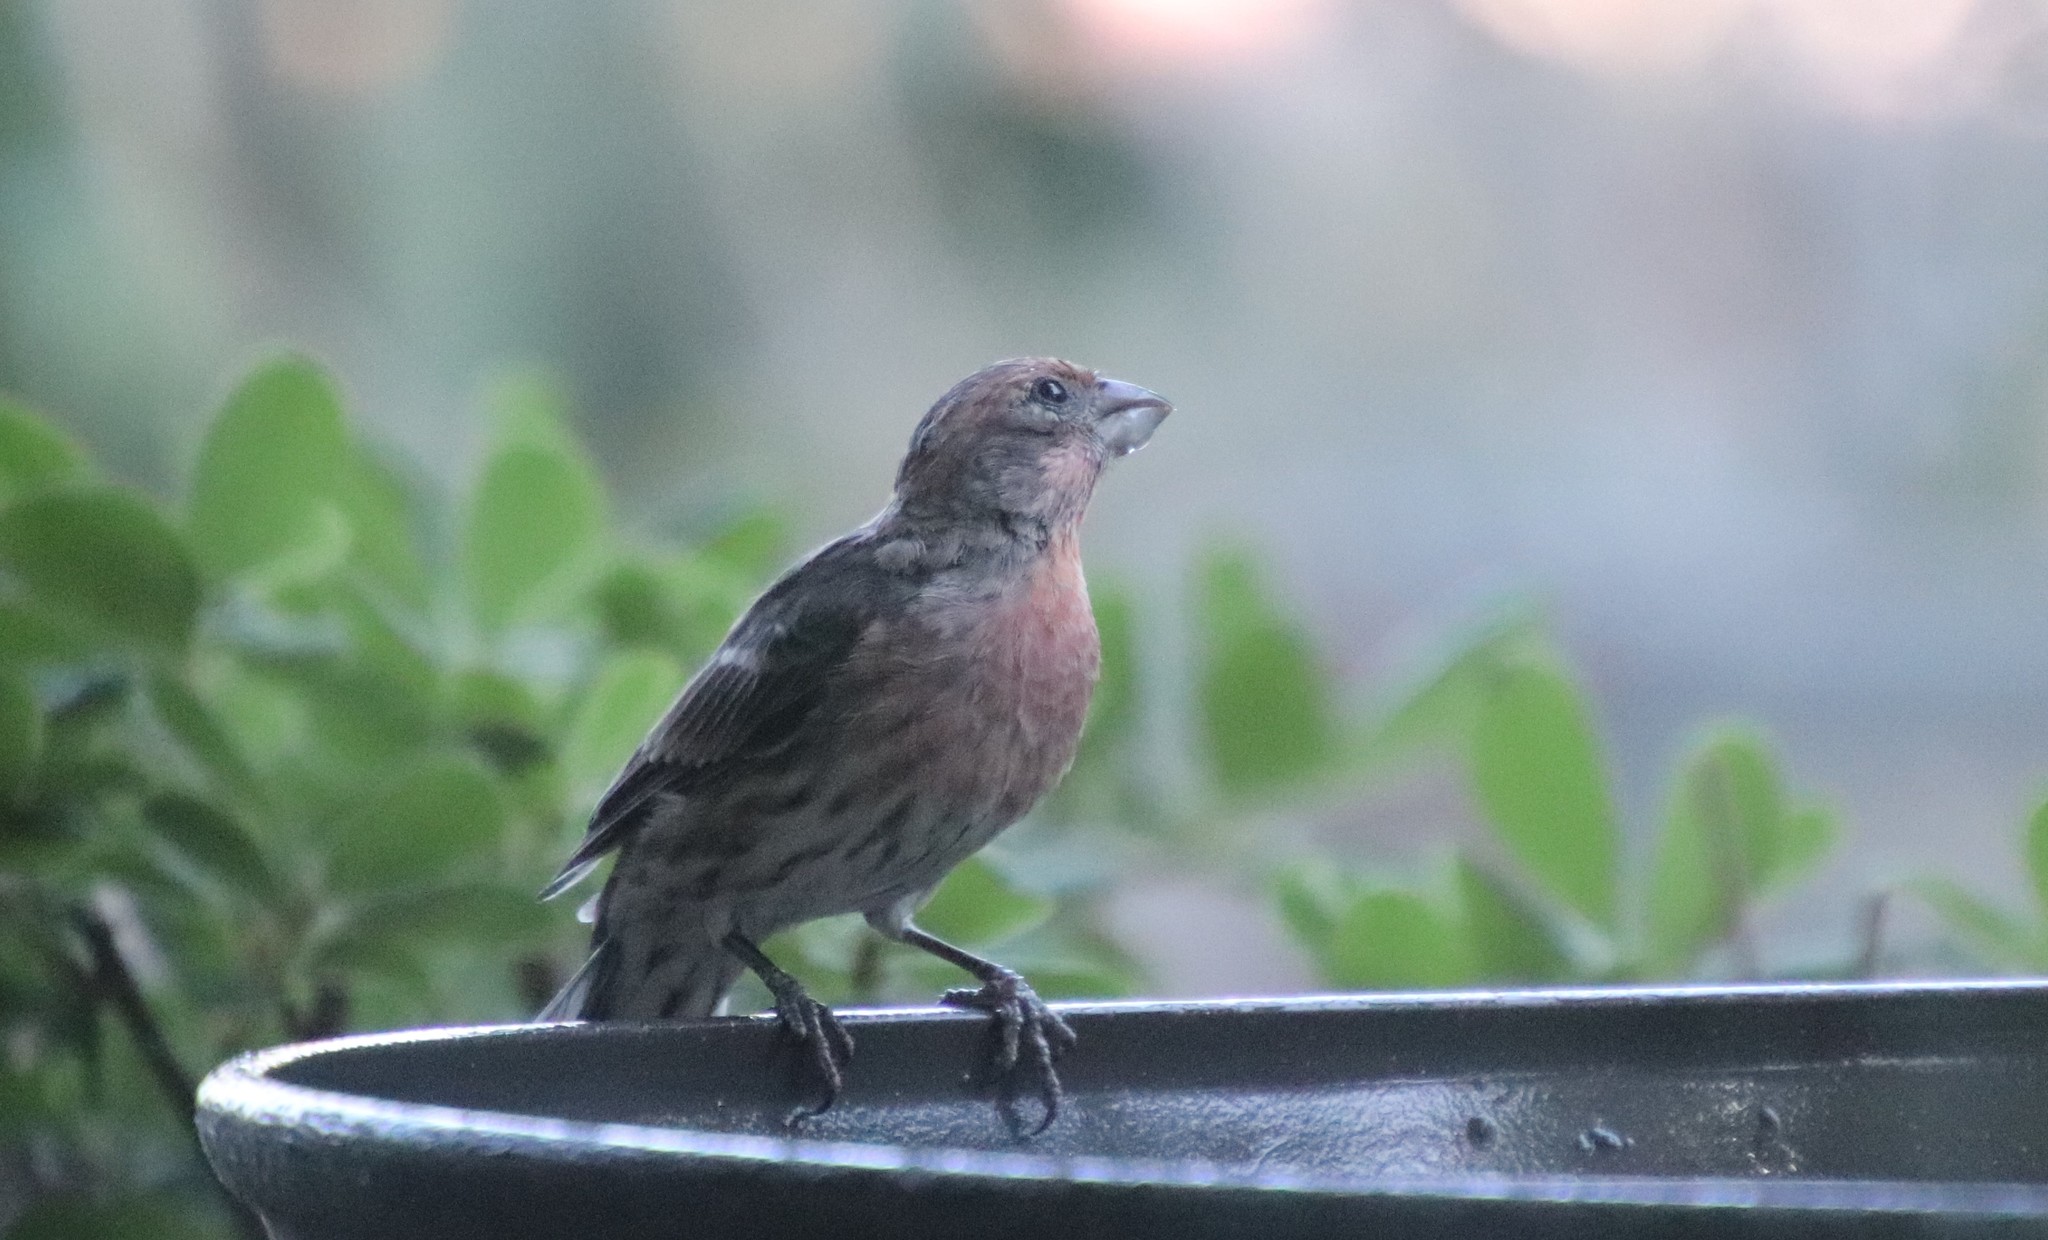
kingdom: Animalia
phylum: Chordata
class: Aves
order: Passeriformes
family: Fringillidae
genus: Haemorhous
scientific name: Haemorhous mexicanus
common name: House finch
